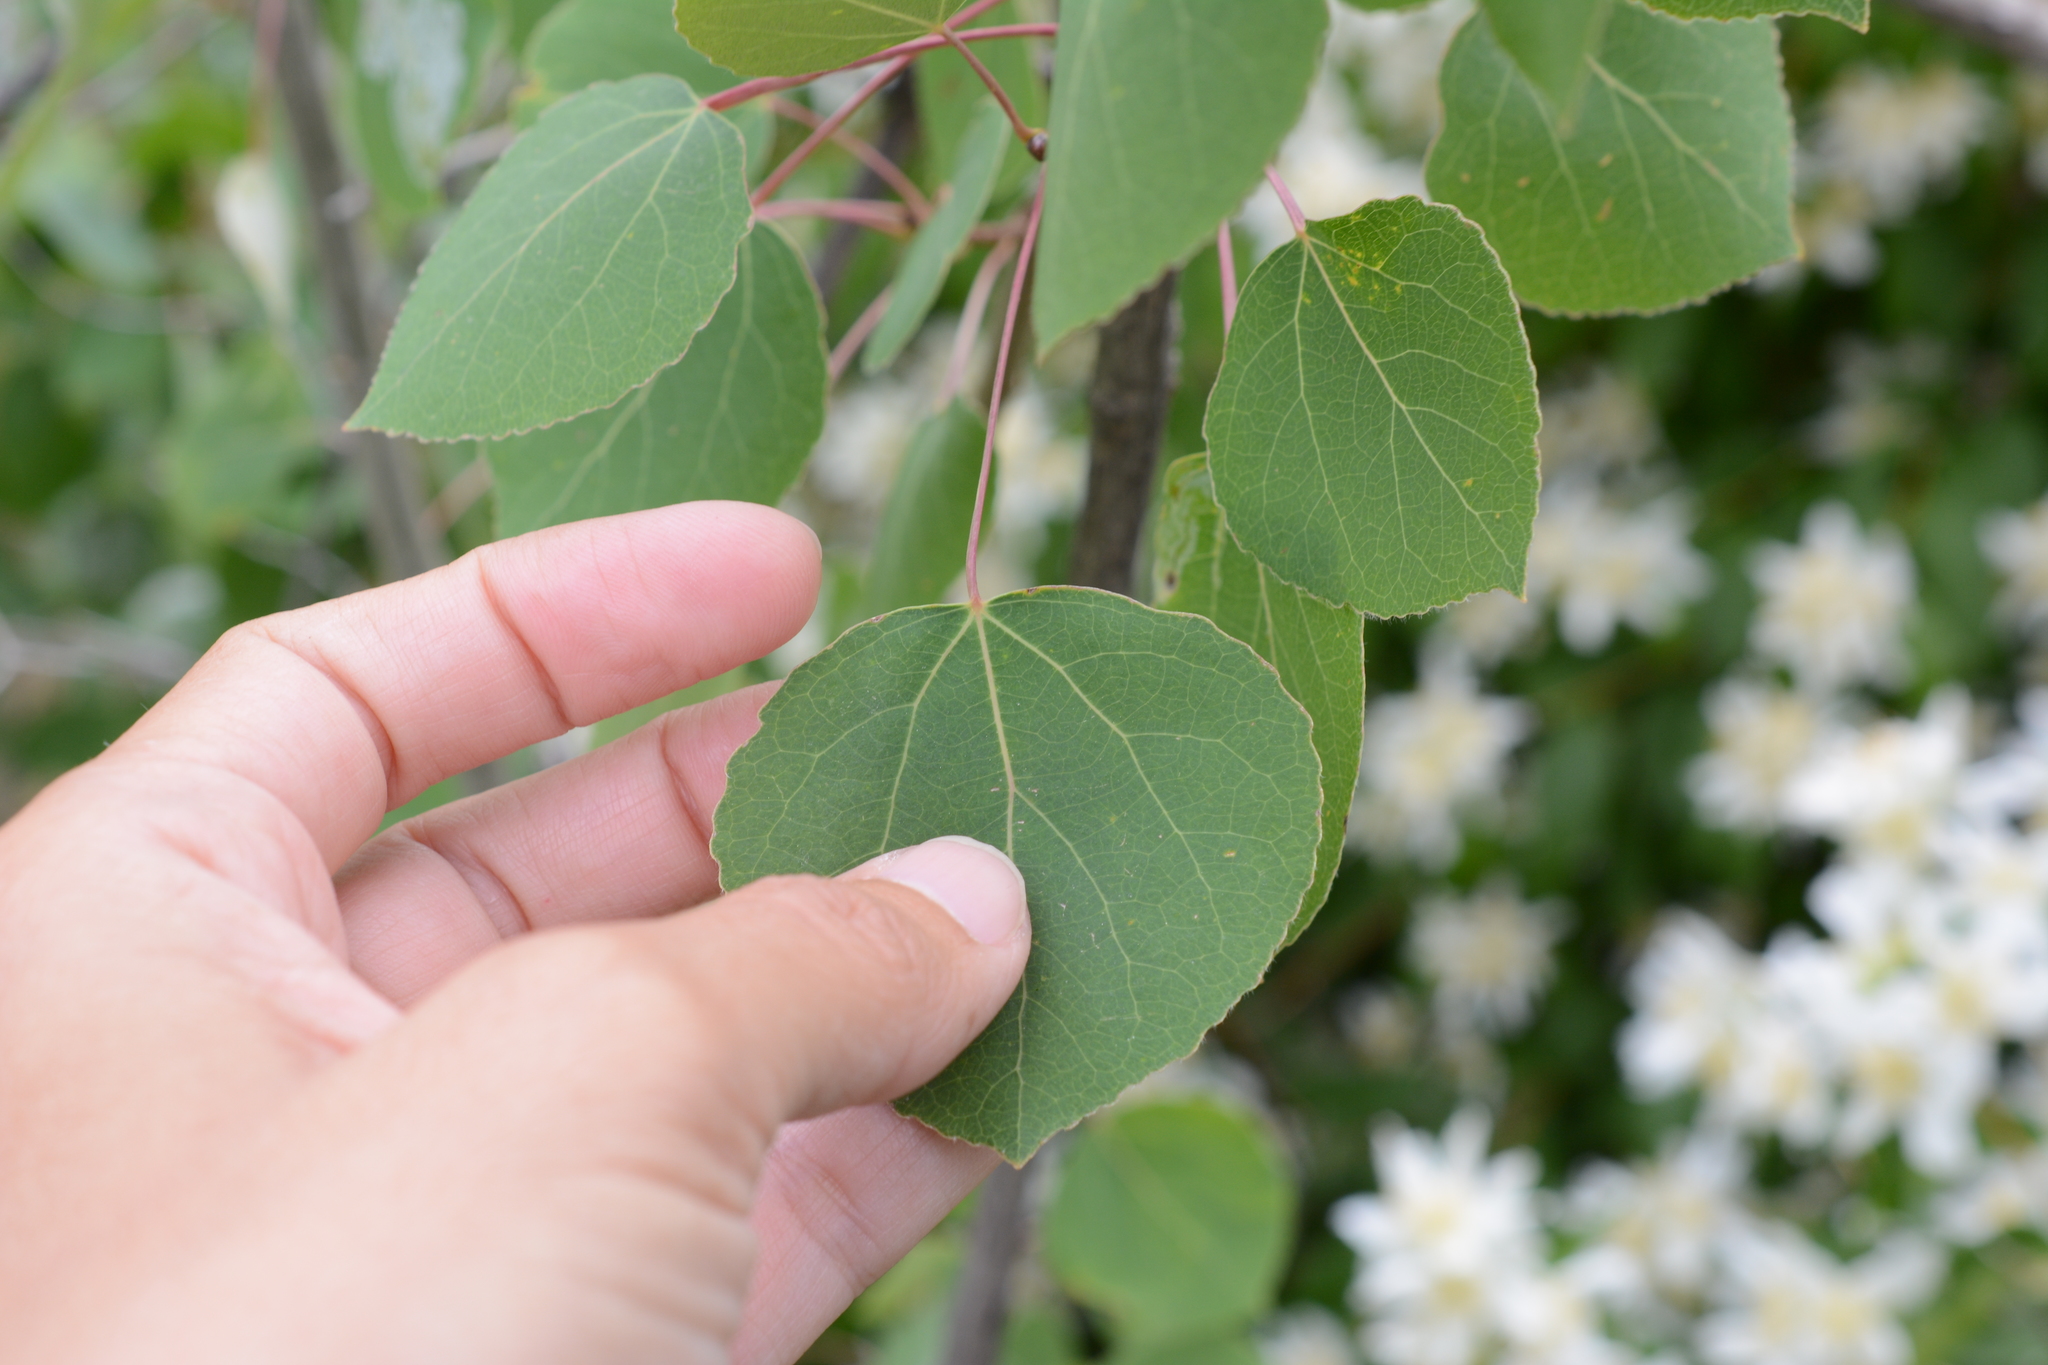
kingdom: Plantae
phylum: Tracheophyta
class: Magnoliopsida
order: Malpighiales
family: Salicaceae
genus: Populus
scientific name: Populus tremuloides
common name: Quaking aspen
